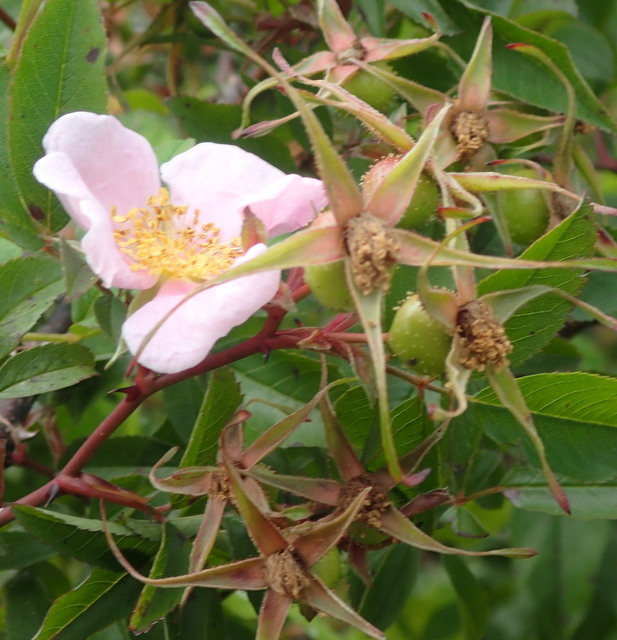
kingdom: Plantae
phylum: Tracheophyta
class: Magnoliopsida
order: Rosales
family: Rosaceae
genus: Rosa
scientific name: Rosa palustris
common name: Swamp rose
